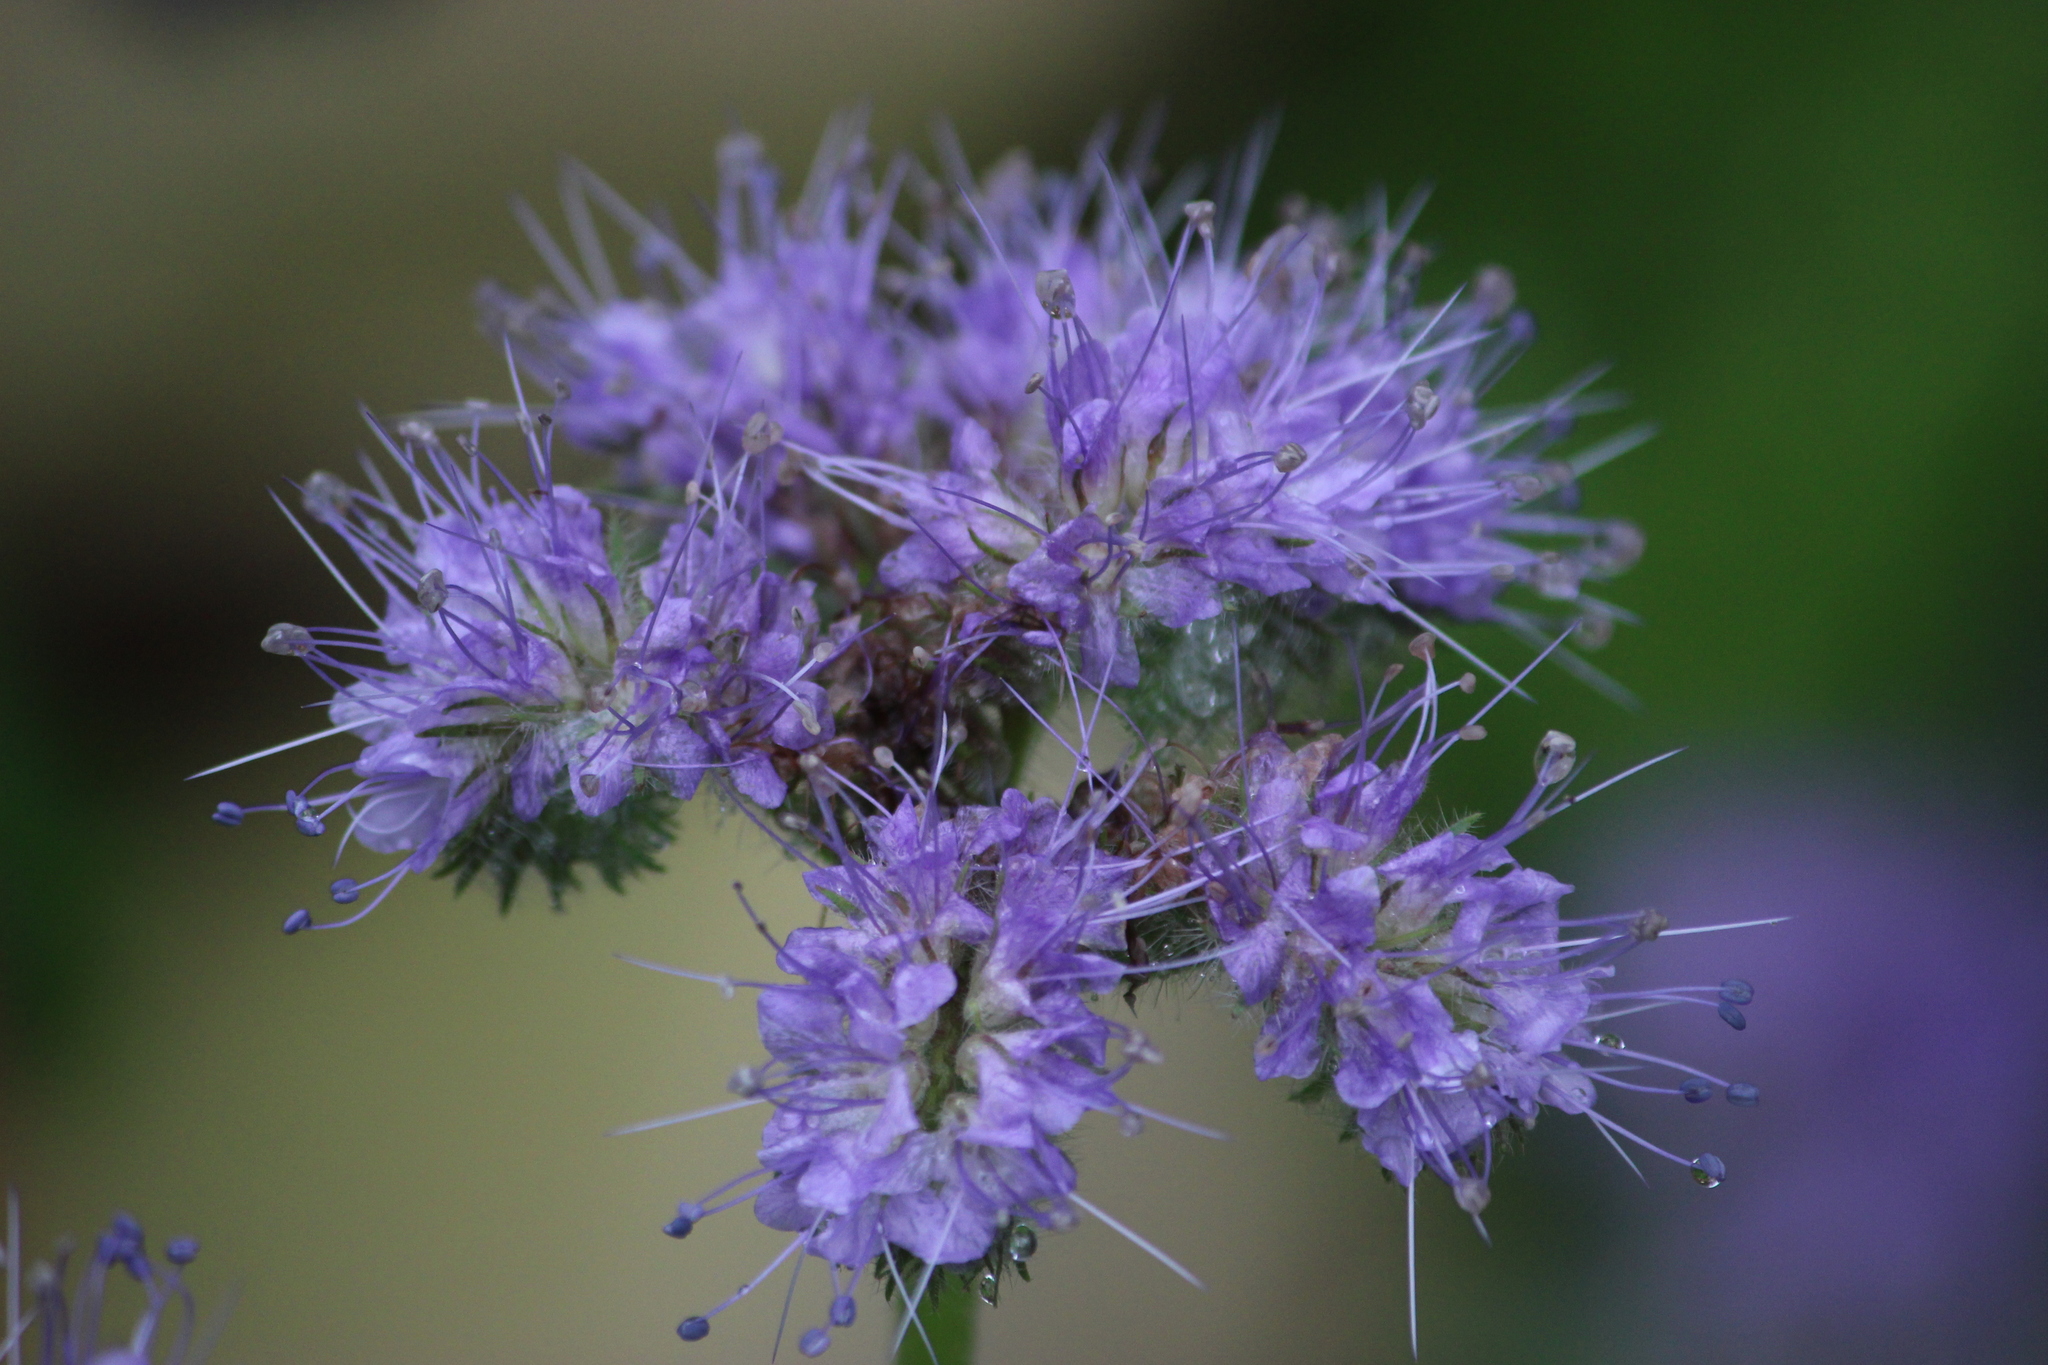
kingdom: Plantae
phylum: Tracheophyta
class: Magnoliopsida
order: Boraginales
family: Hydrophyllaceae
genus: Phacelia
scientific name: Phacelia tanacetifolia
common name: Phacelia
